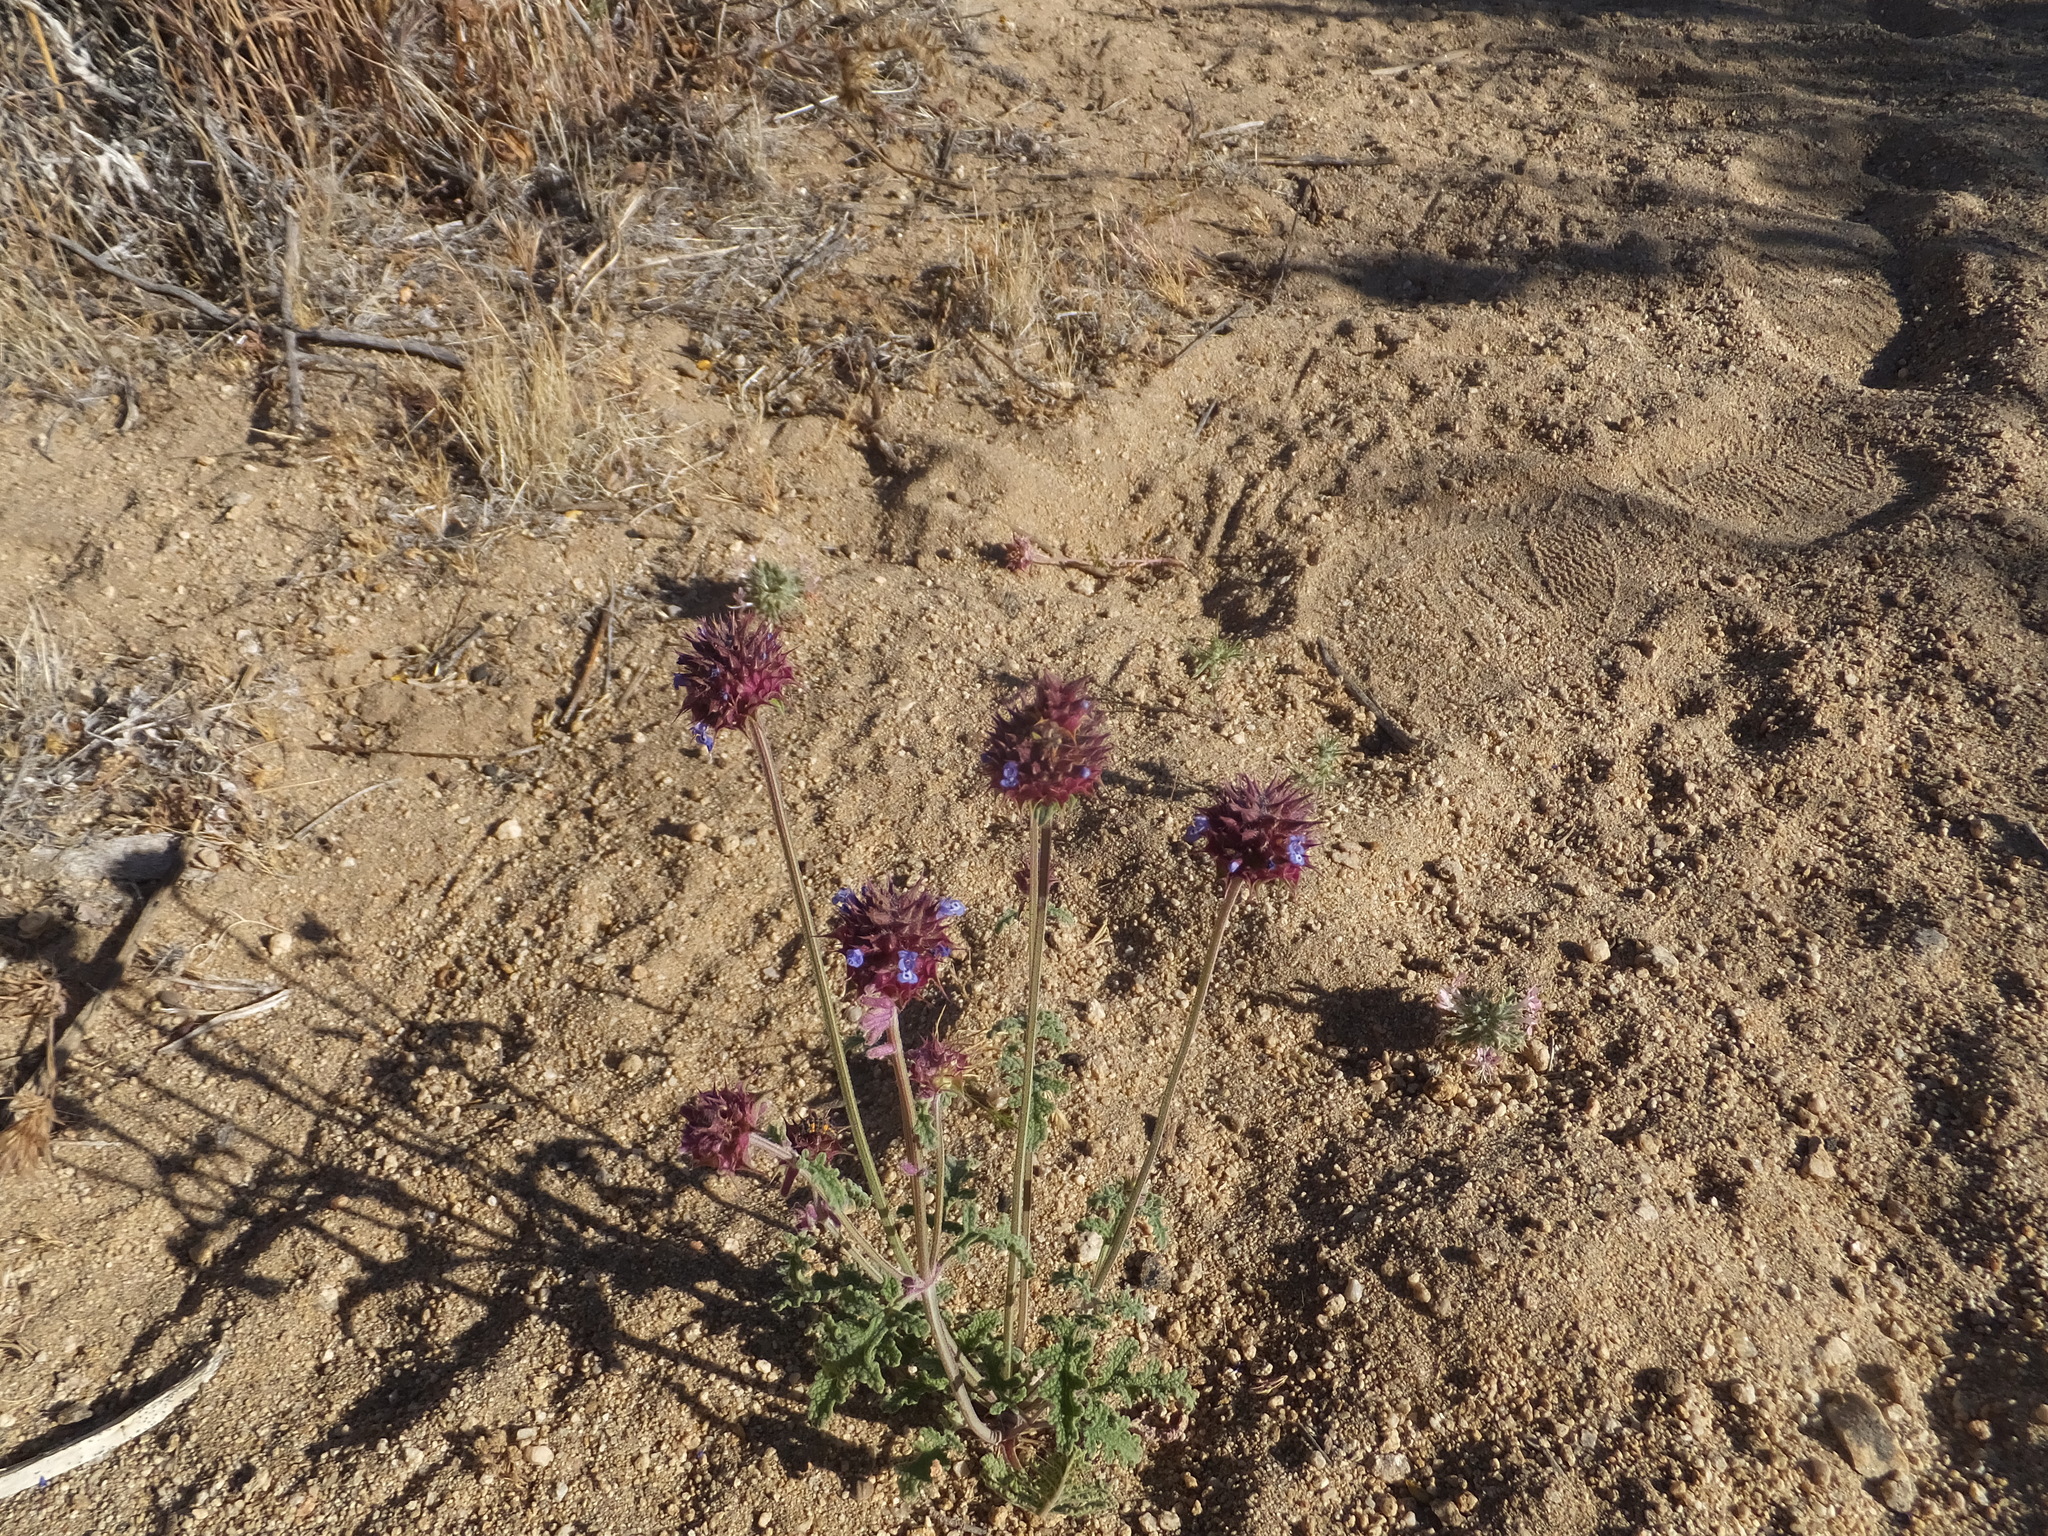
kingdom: Plantae
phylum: Tracheophyta
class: Magnoliopsida
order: Lamiales
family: Lamiaceae
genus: Salvia
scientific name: Salvia columbariae
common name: Chia
